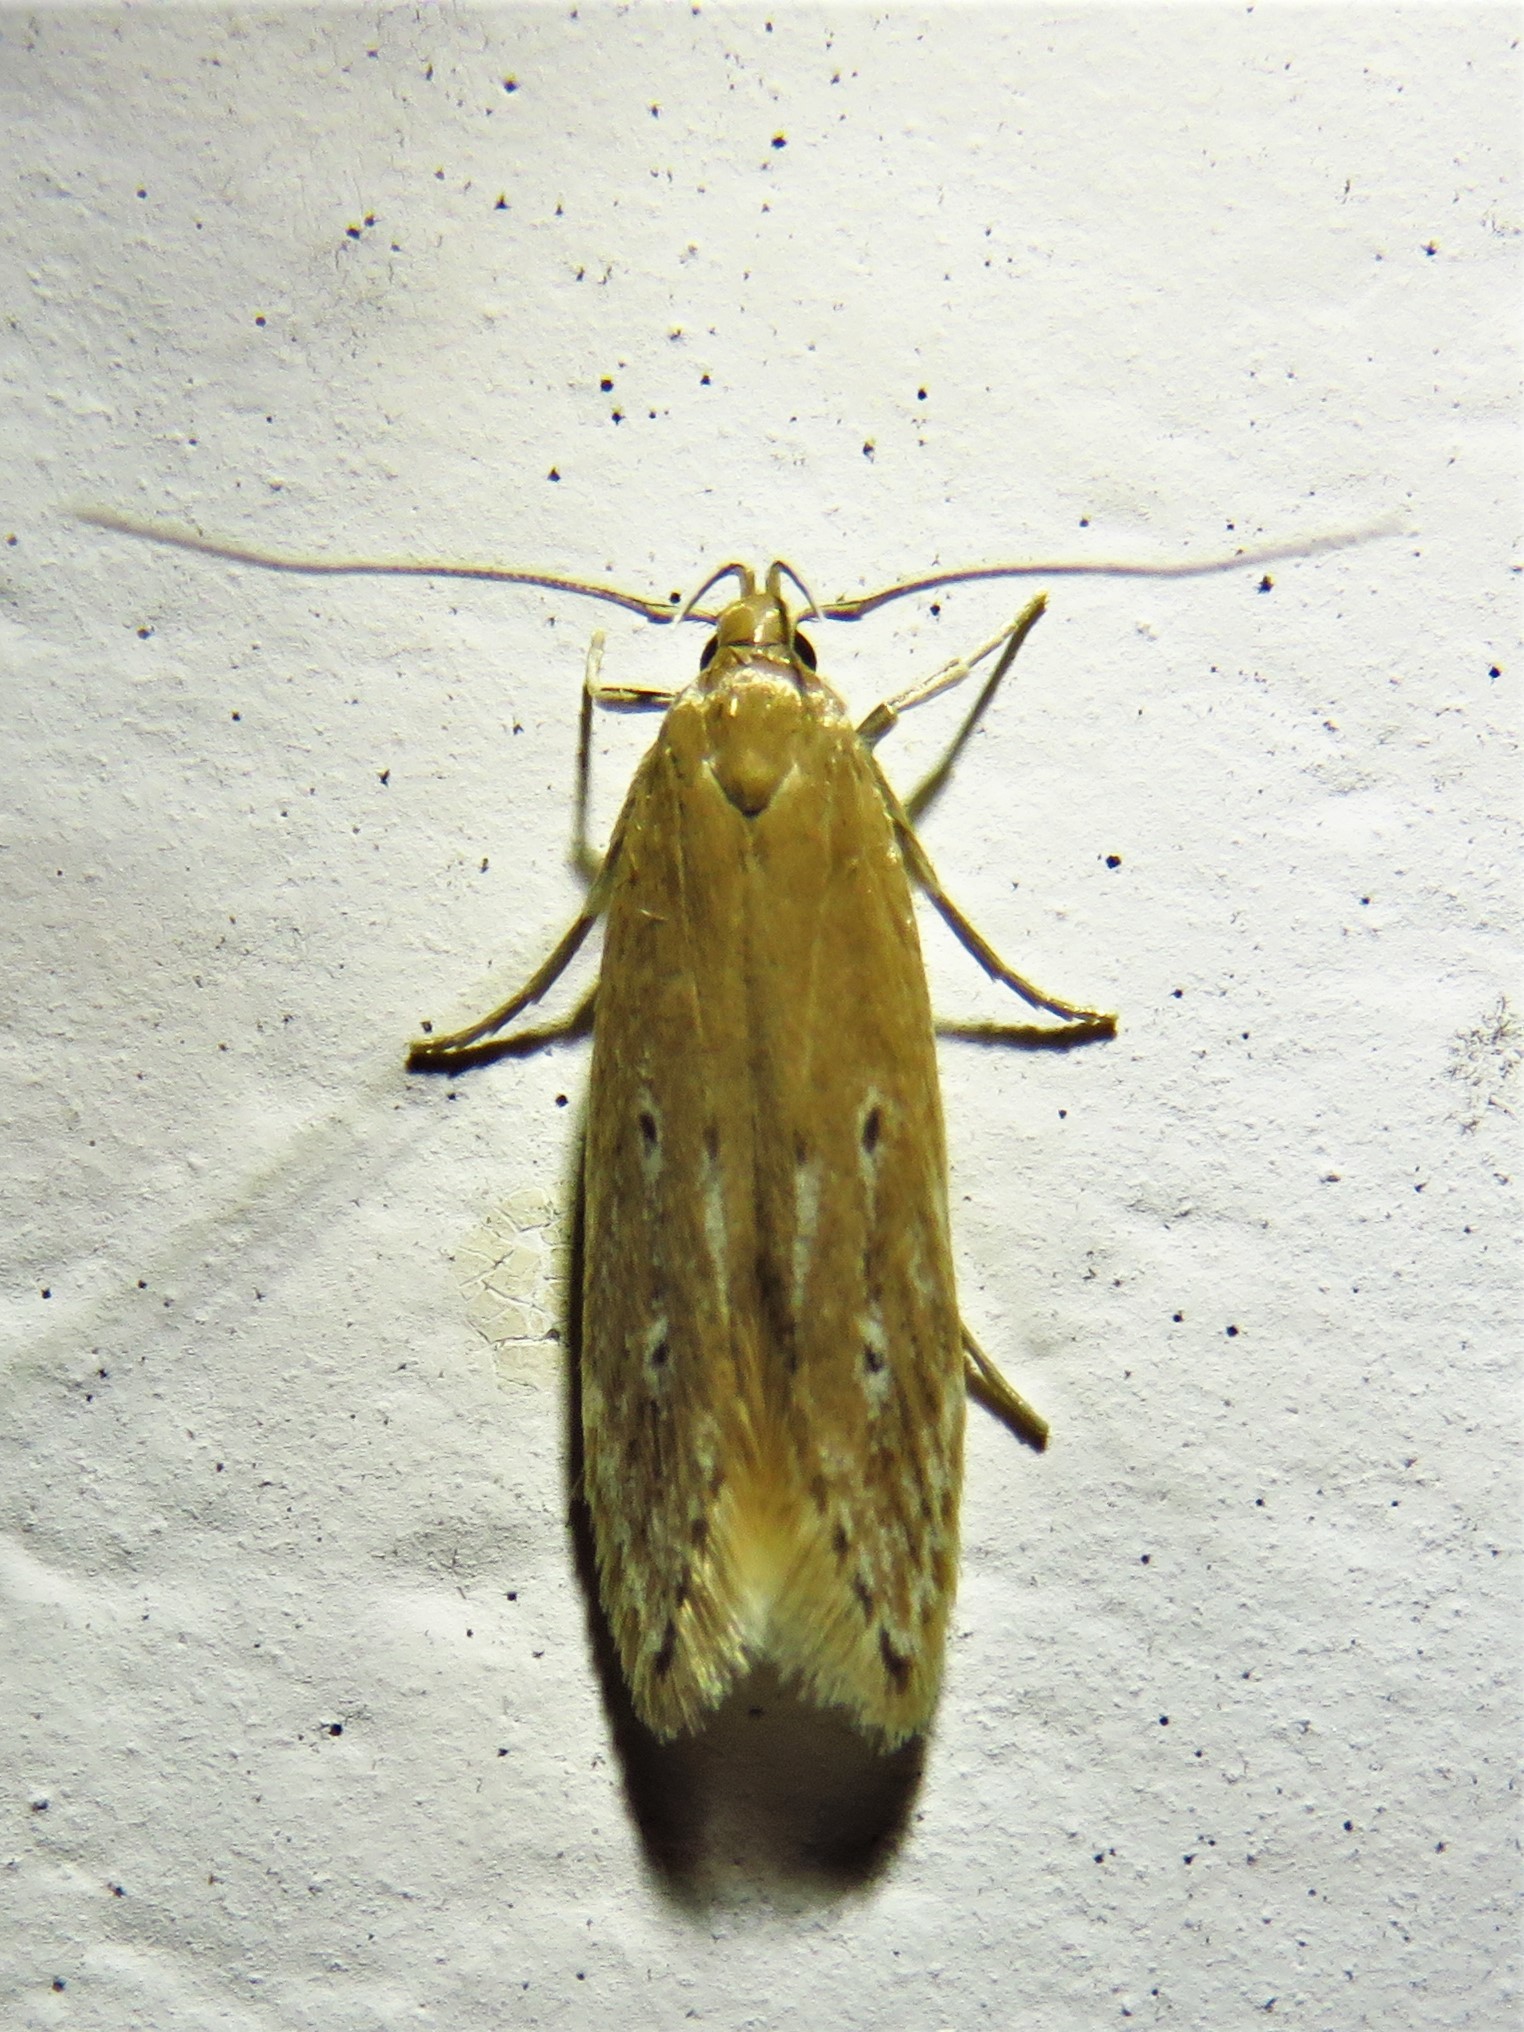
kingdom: Animalia
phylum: Arthropoda
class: Insecta
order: Lepidoptera
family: Cosmopterigidae
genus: Limnaecia
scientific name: Limnaecia phragmitella
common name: Bulrush cosmet
